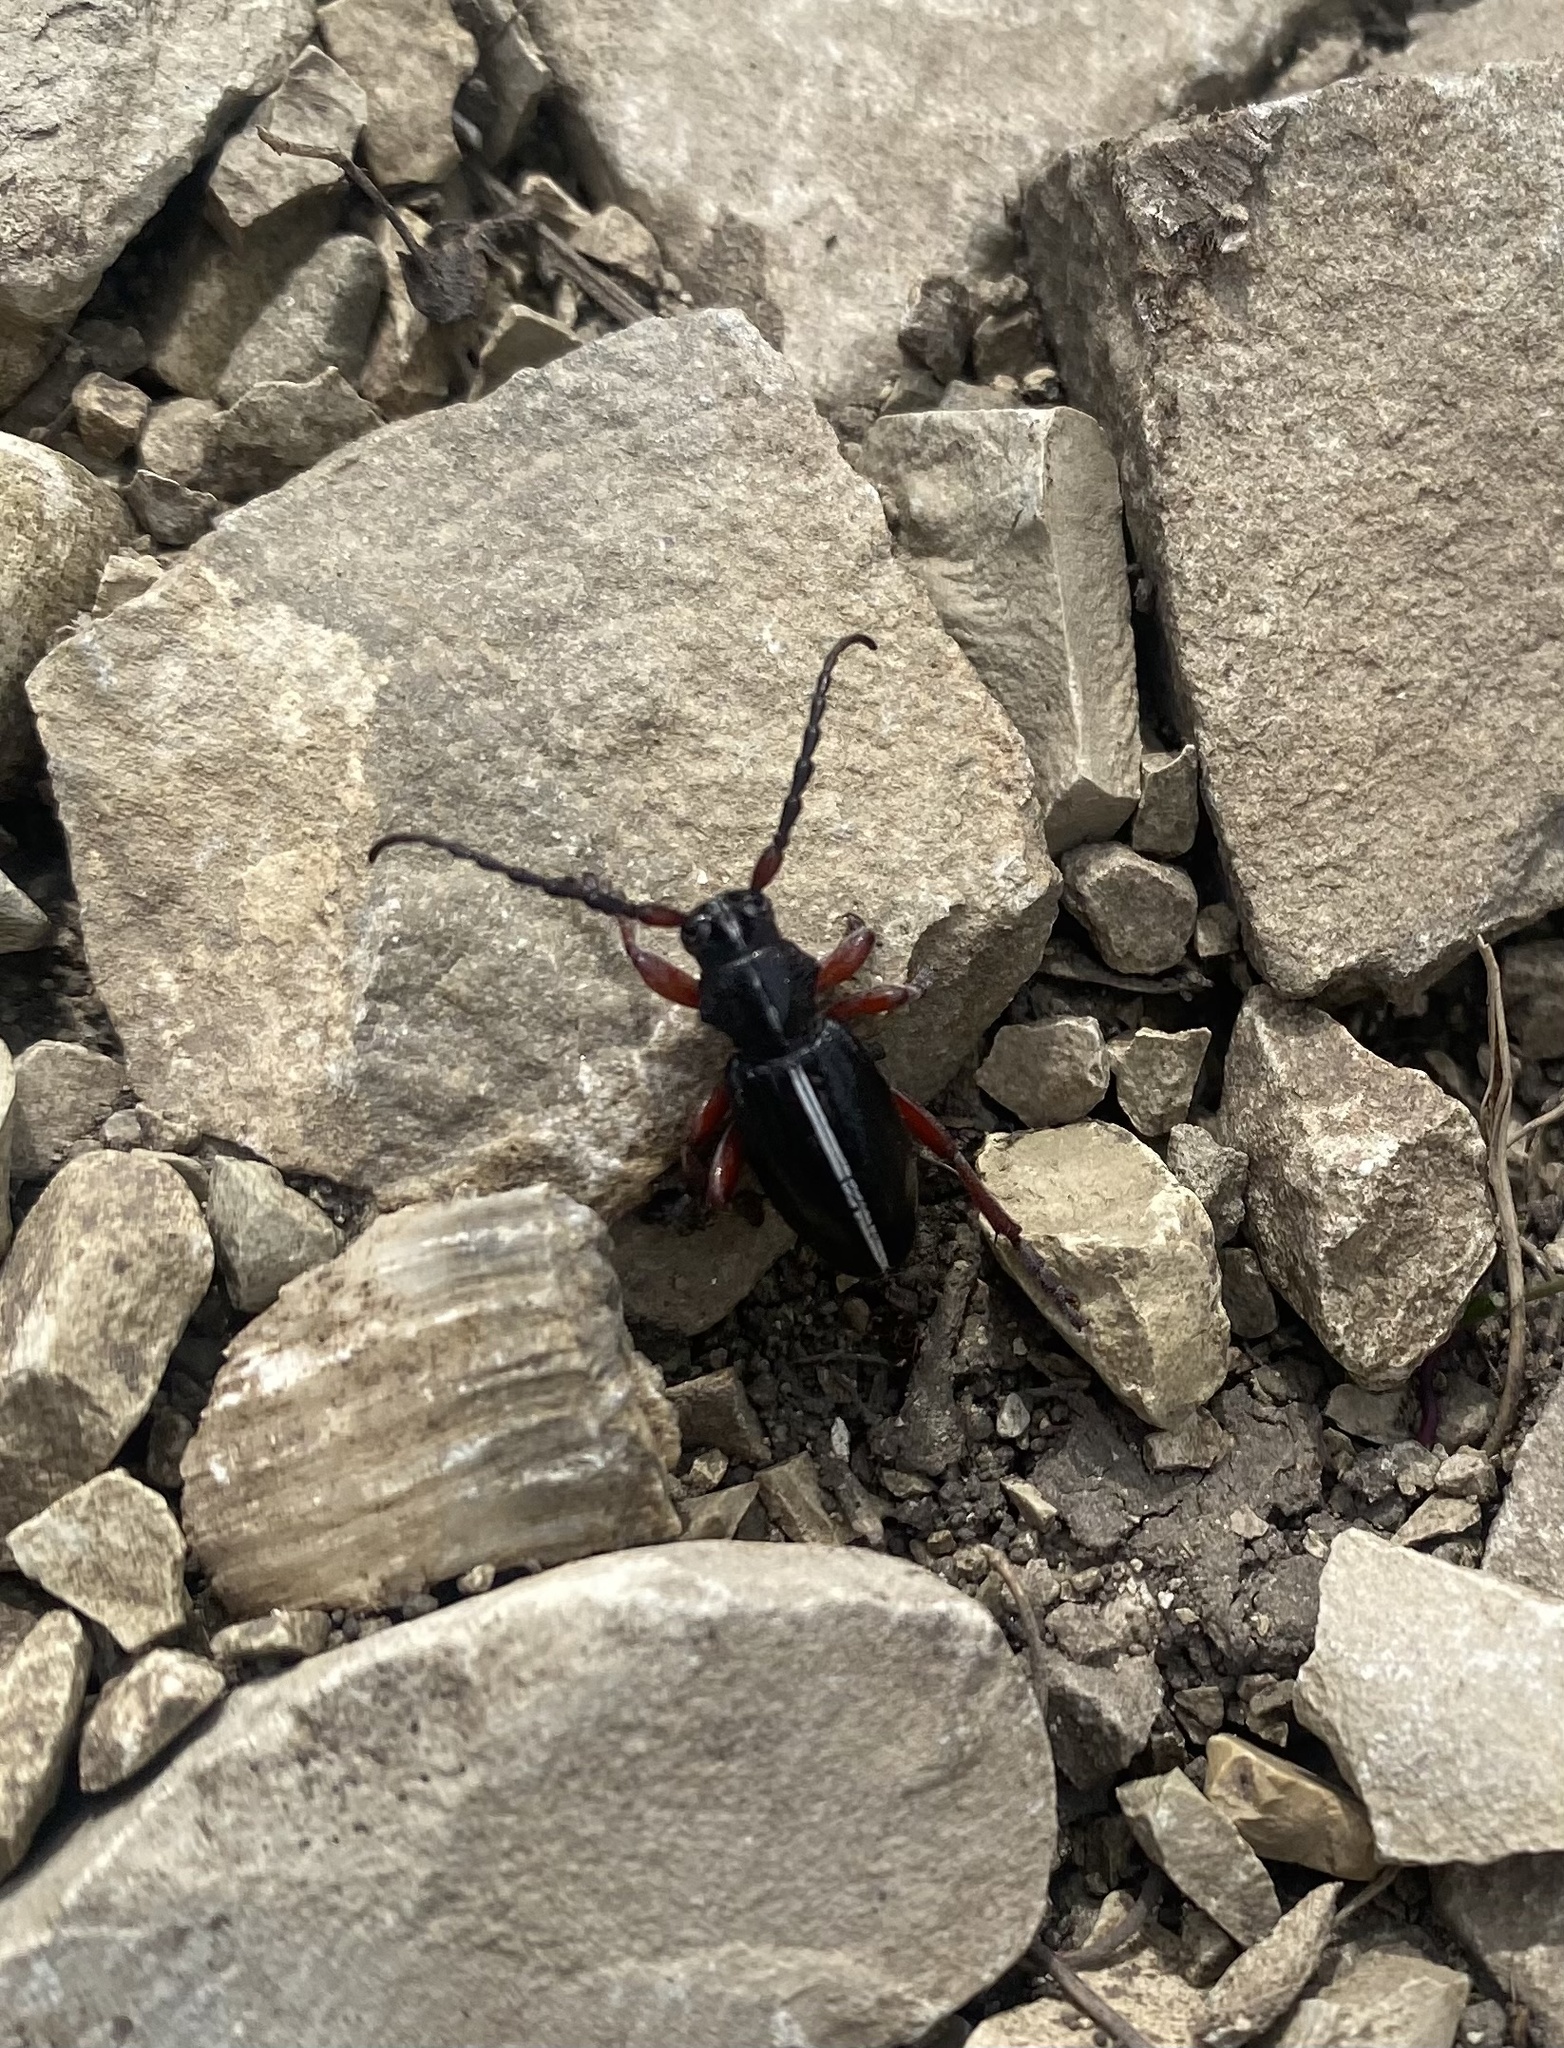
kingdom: Animalia
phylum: Arthropoda
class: Insecta
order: Coleoptera
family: Cerambycidae
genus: Dorcadion
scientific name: Dorcadion cinerarium
